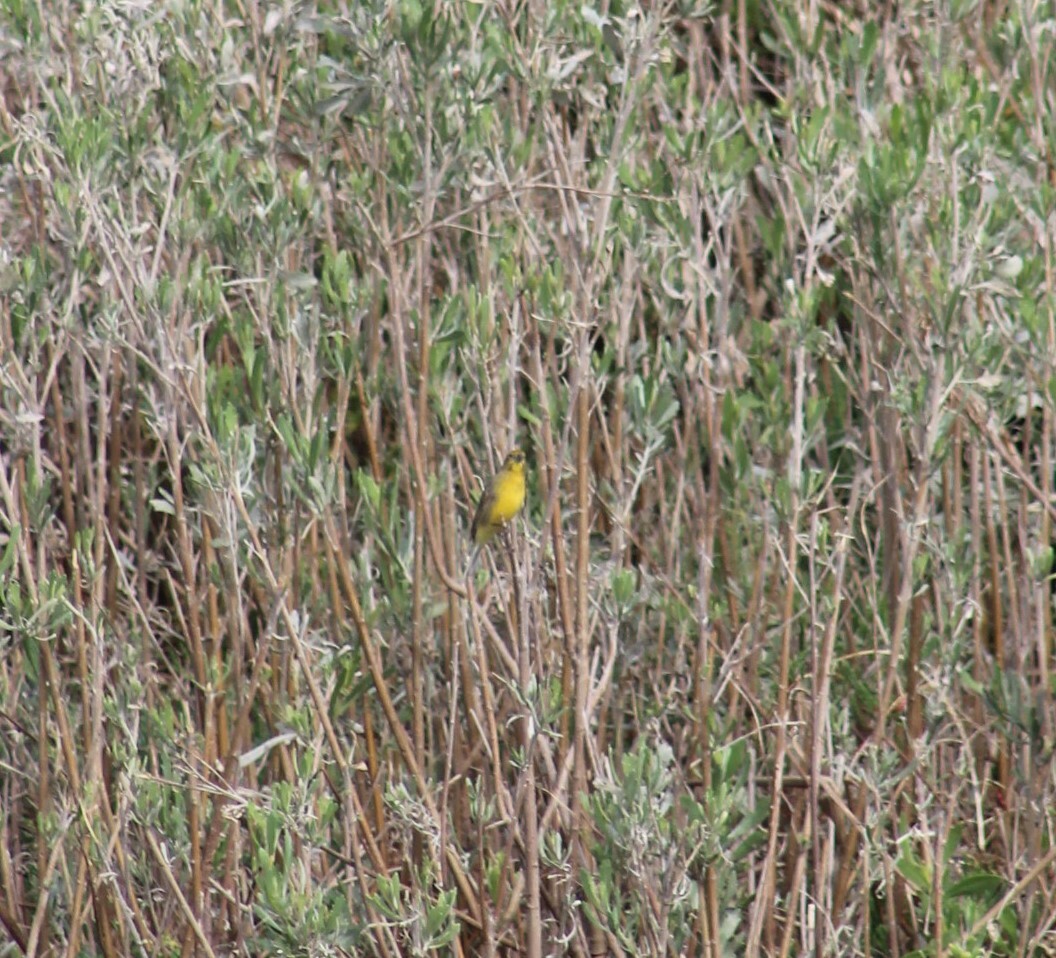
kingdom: Animalia
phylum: Chordata
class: Aves
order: Passeriformes
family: Thraupidae
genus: Sicalis
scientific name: Sicalis luteola
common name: Grassland yellow-finch
